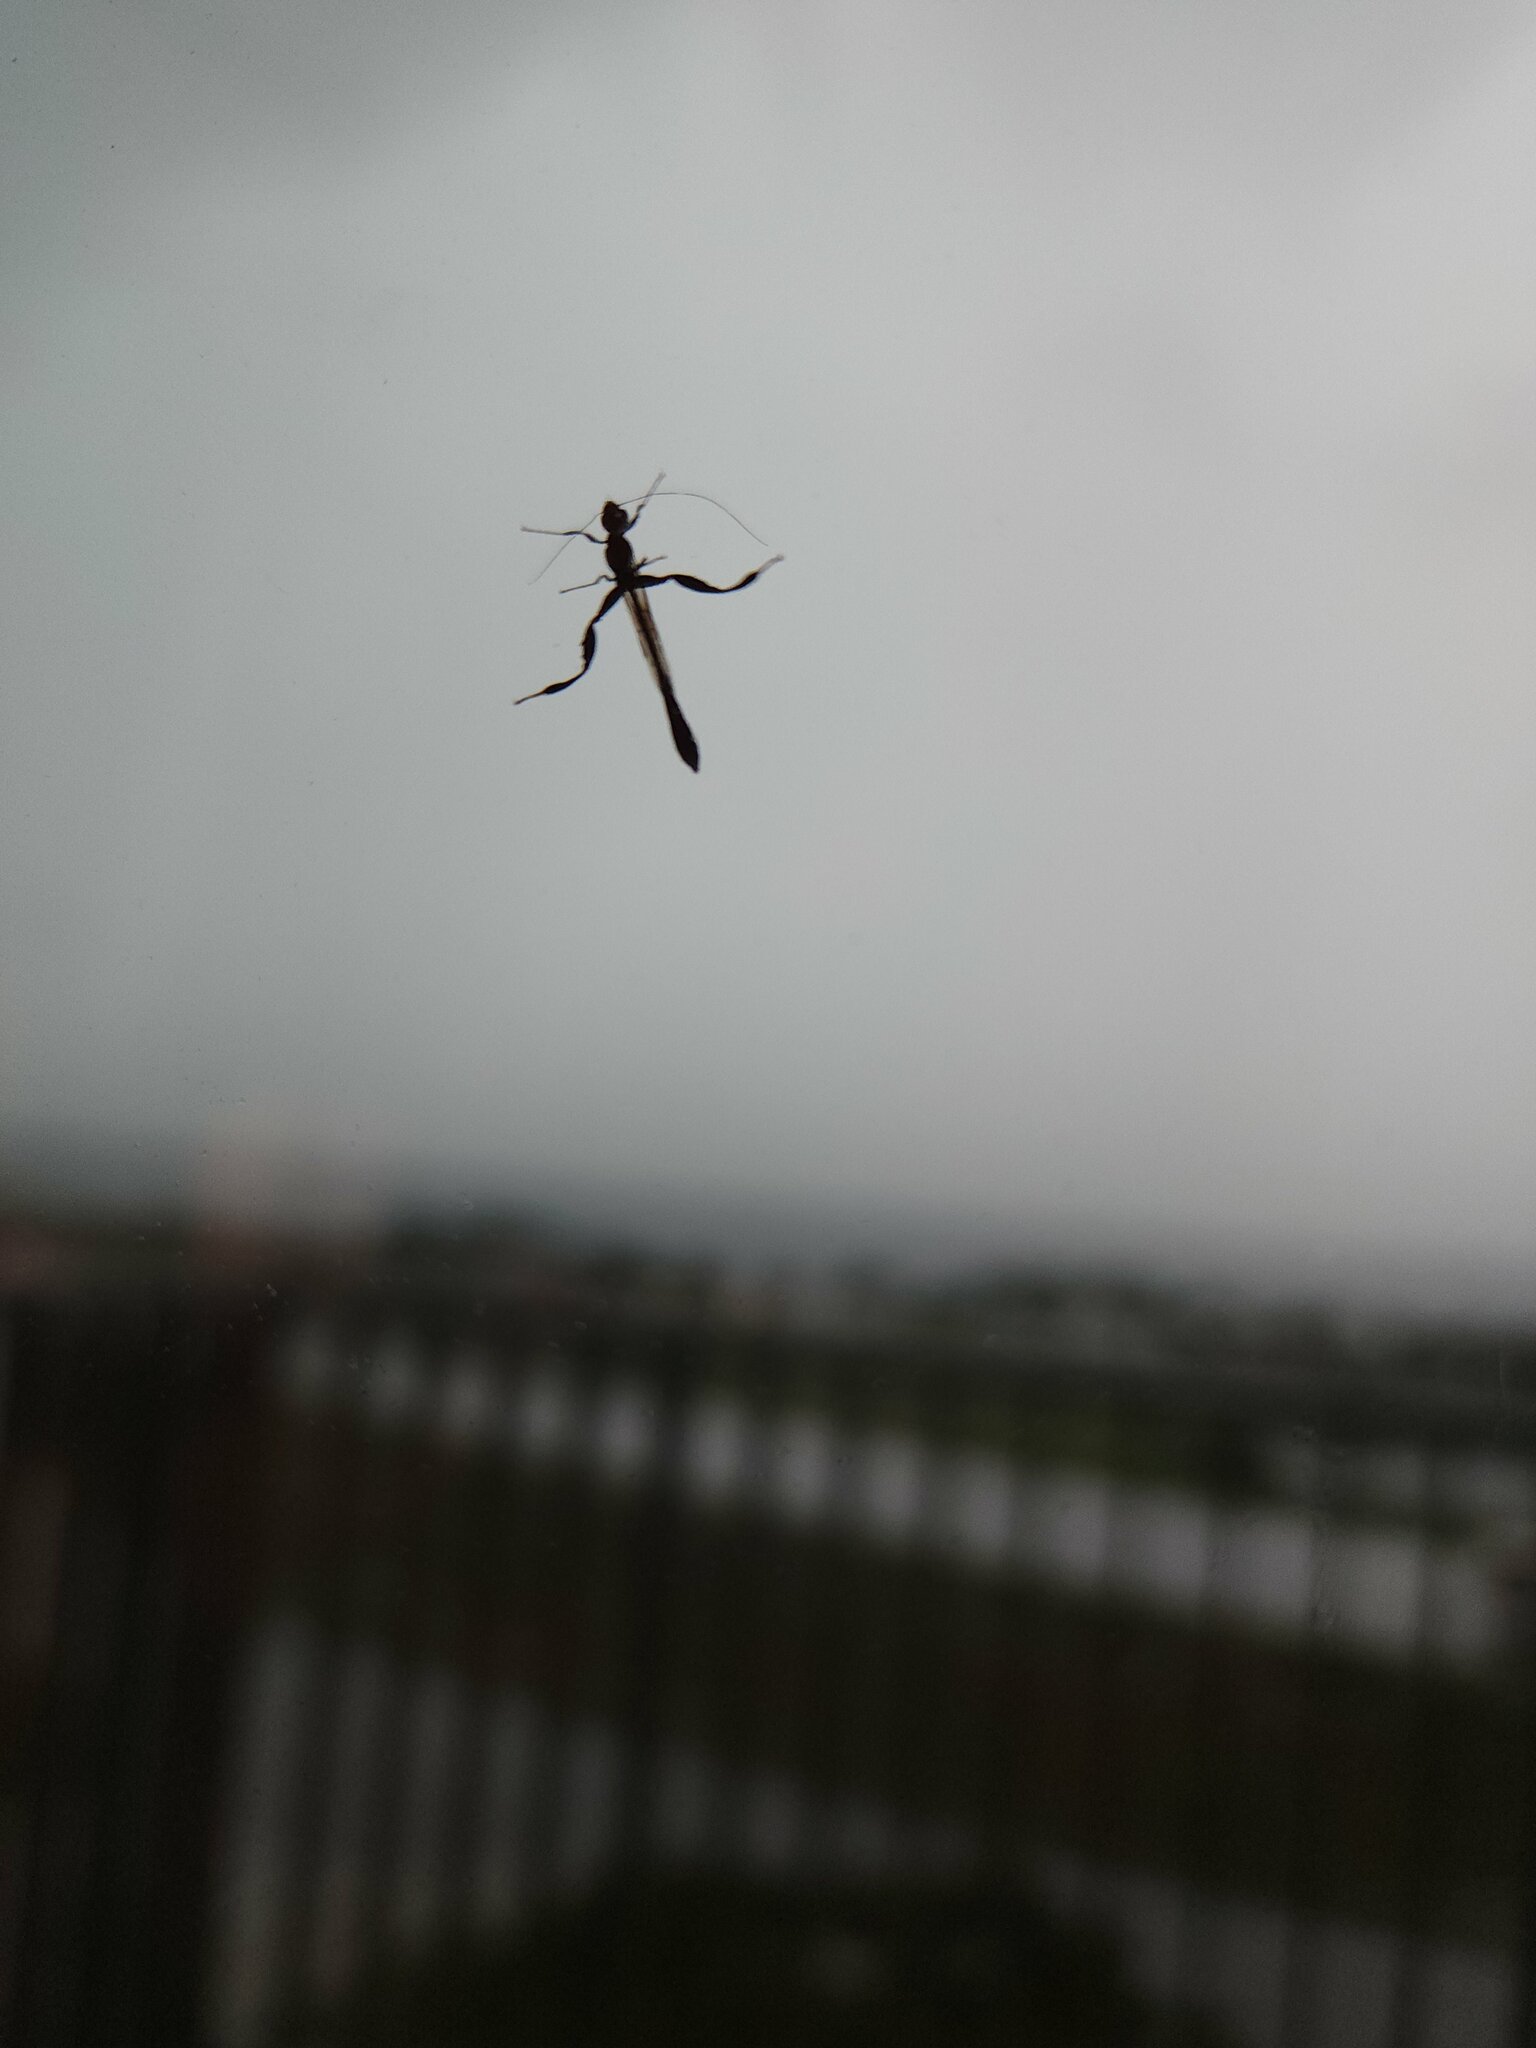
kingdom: Animalia
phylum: Arthropoda
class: Insecta
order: Hymenoptera
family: Stephanidae
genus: Megischus
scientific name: Megischus
